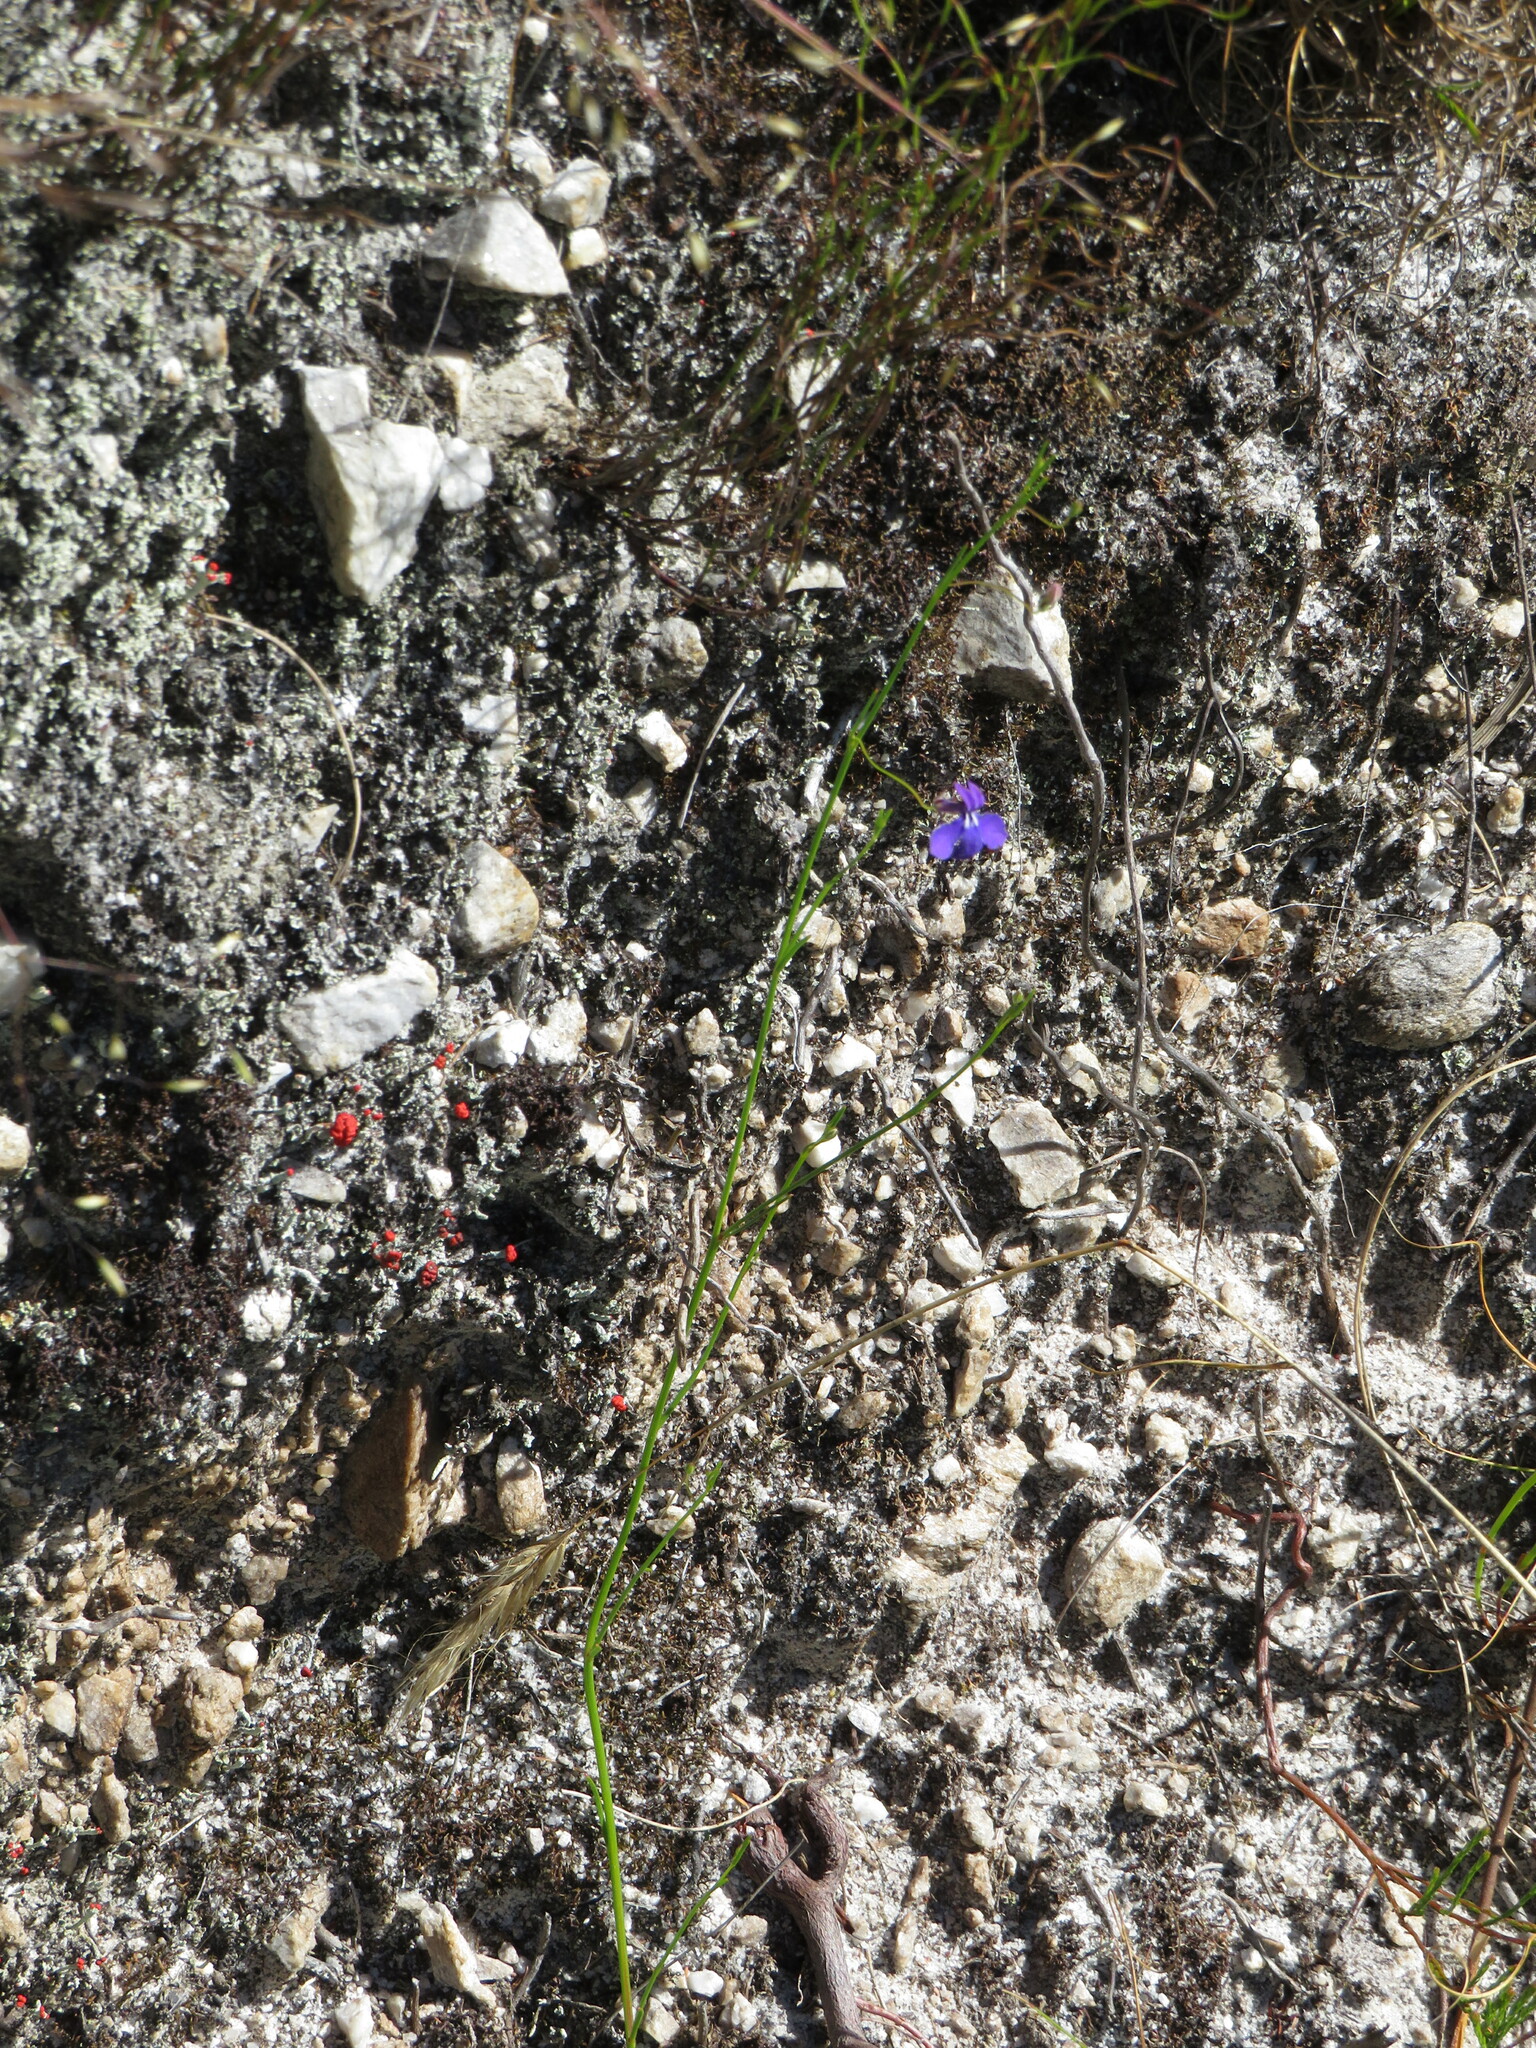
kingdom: Plantae
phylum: Tracheophyta
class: Magnoliopsida
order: Asterales
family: Campanulaceae
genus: Lobelia
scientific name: Lobelia setacea
